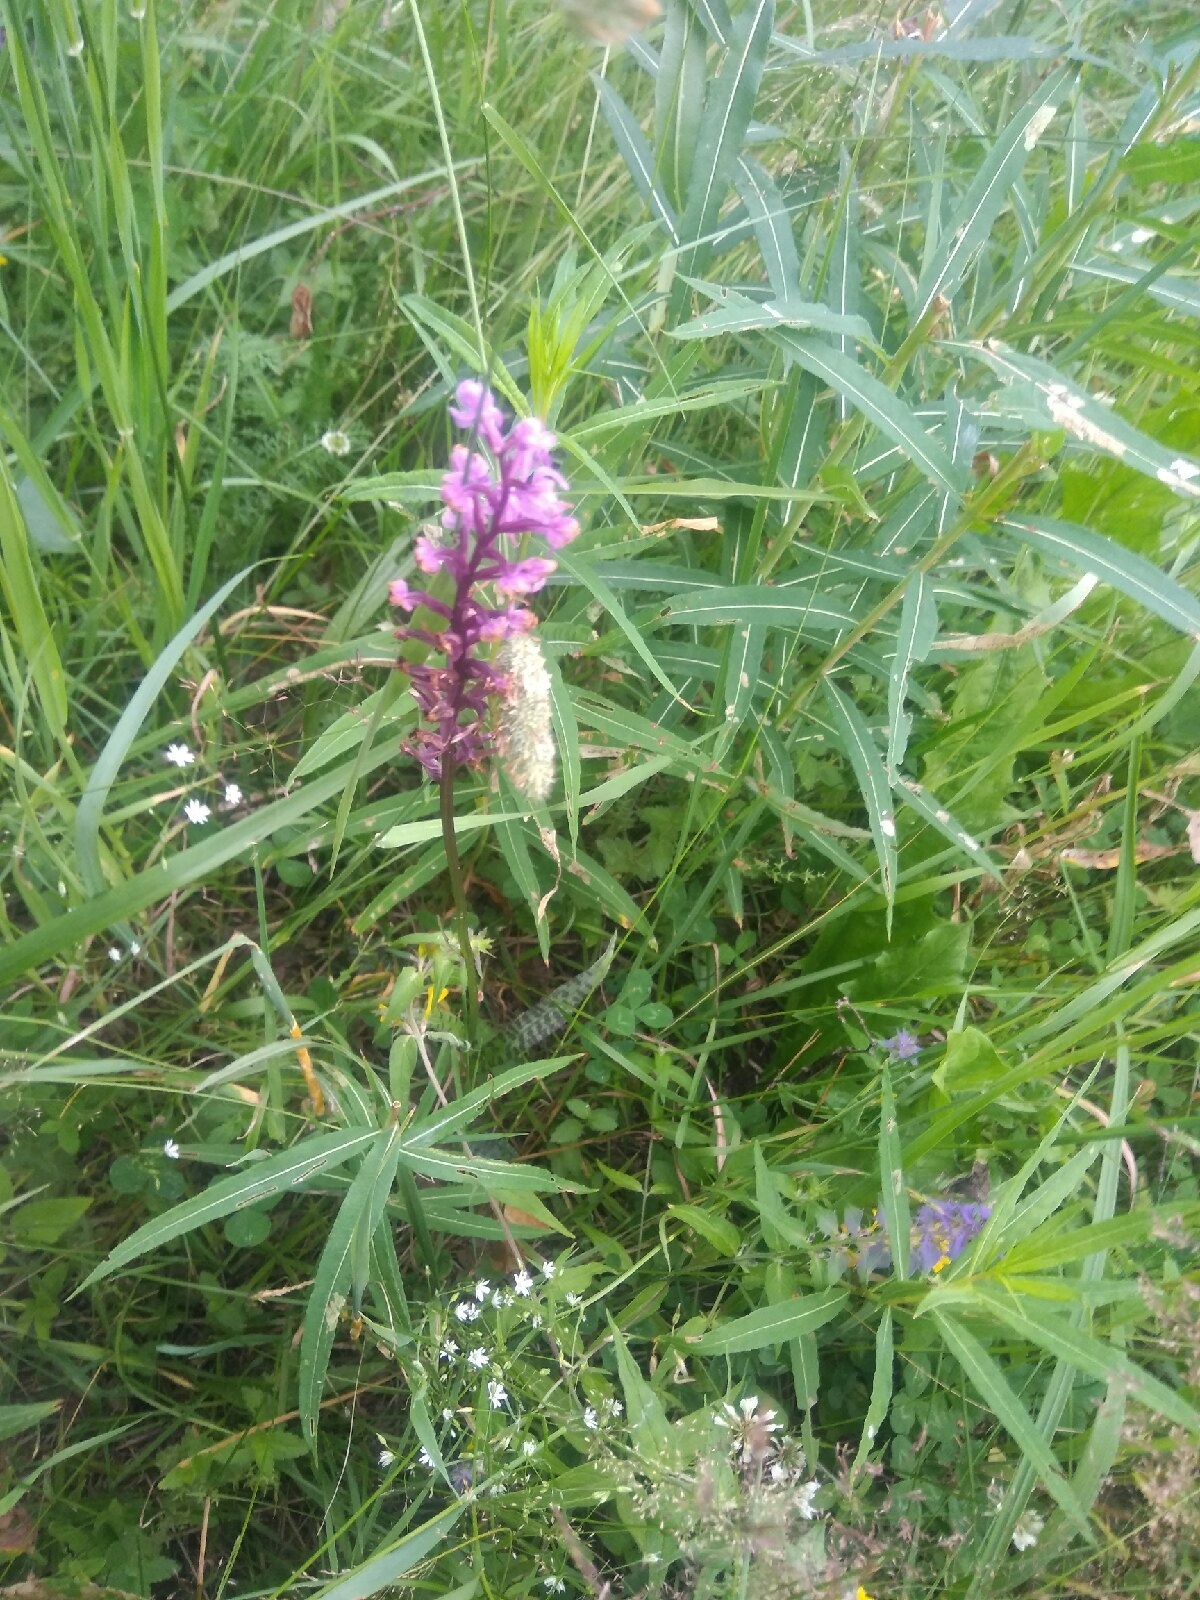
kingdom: Plantae
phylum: Tracheophyta
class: Liliopsida
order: Asparagales
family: Orchidaceae
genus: Dactylorhiza
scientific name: Dactylorhiza maculata
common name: Heath spotted-orchid
